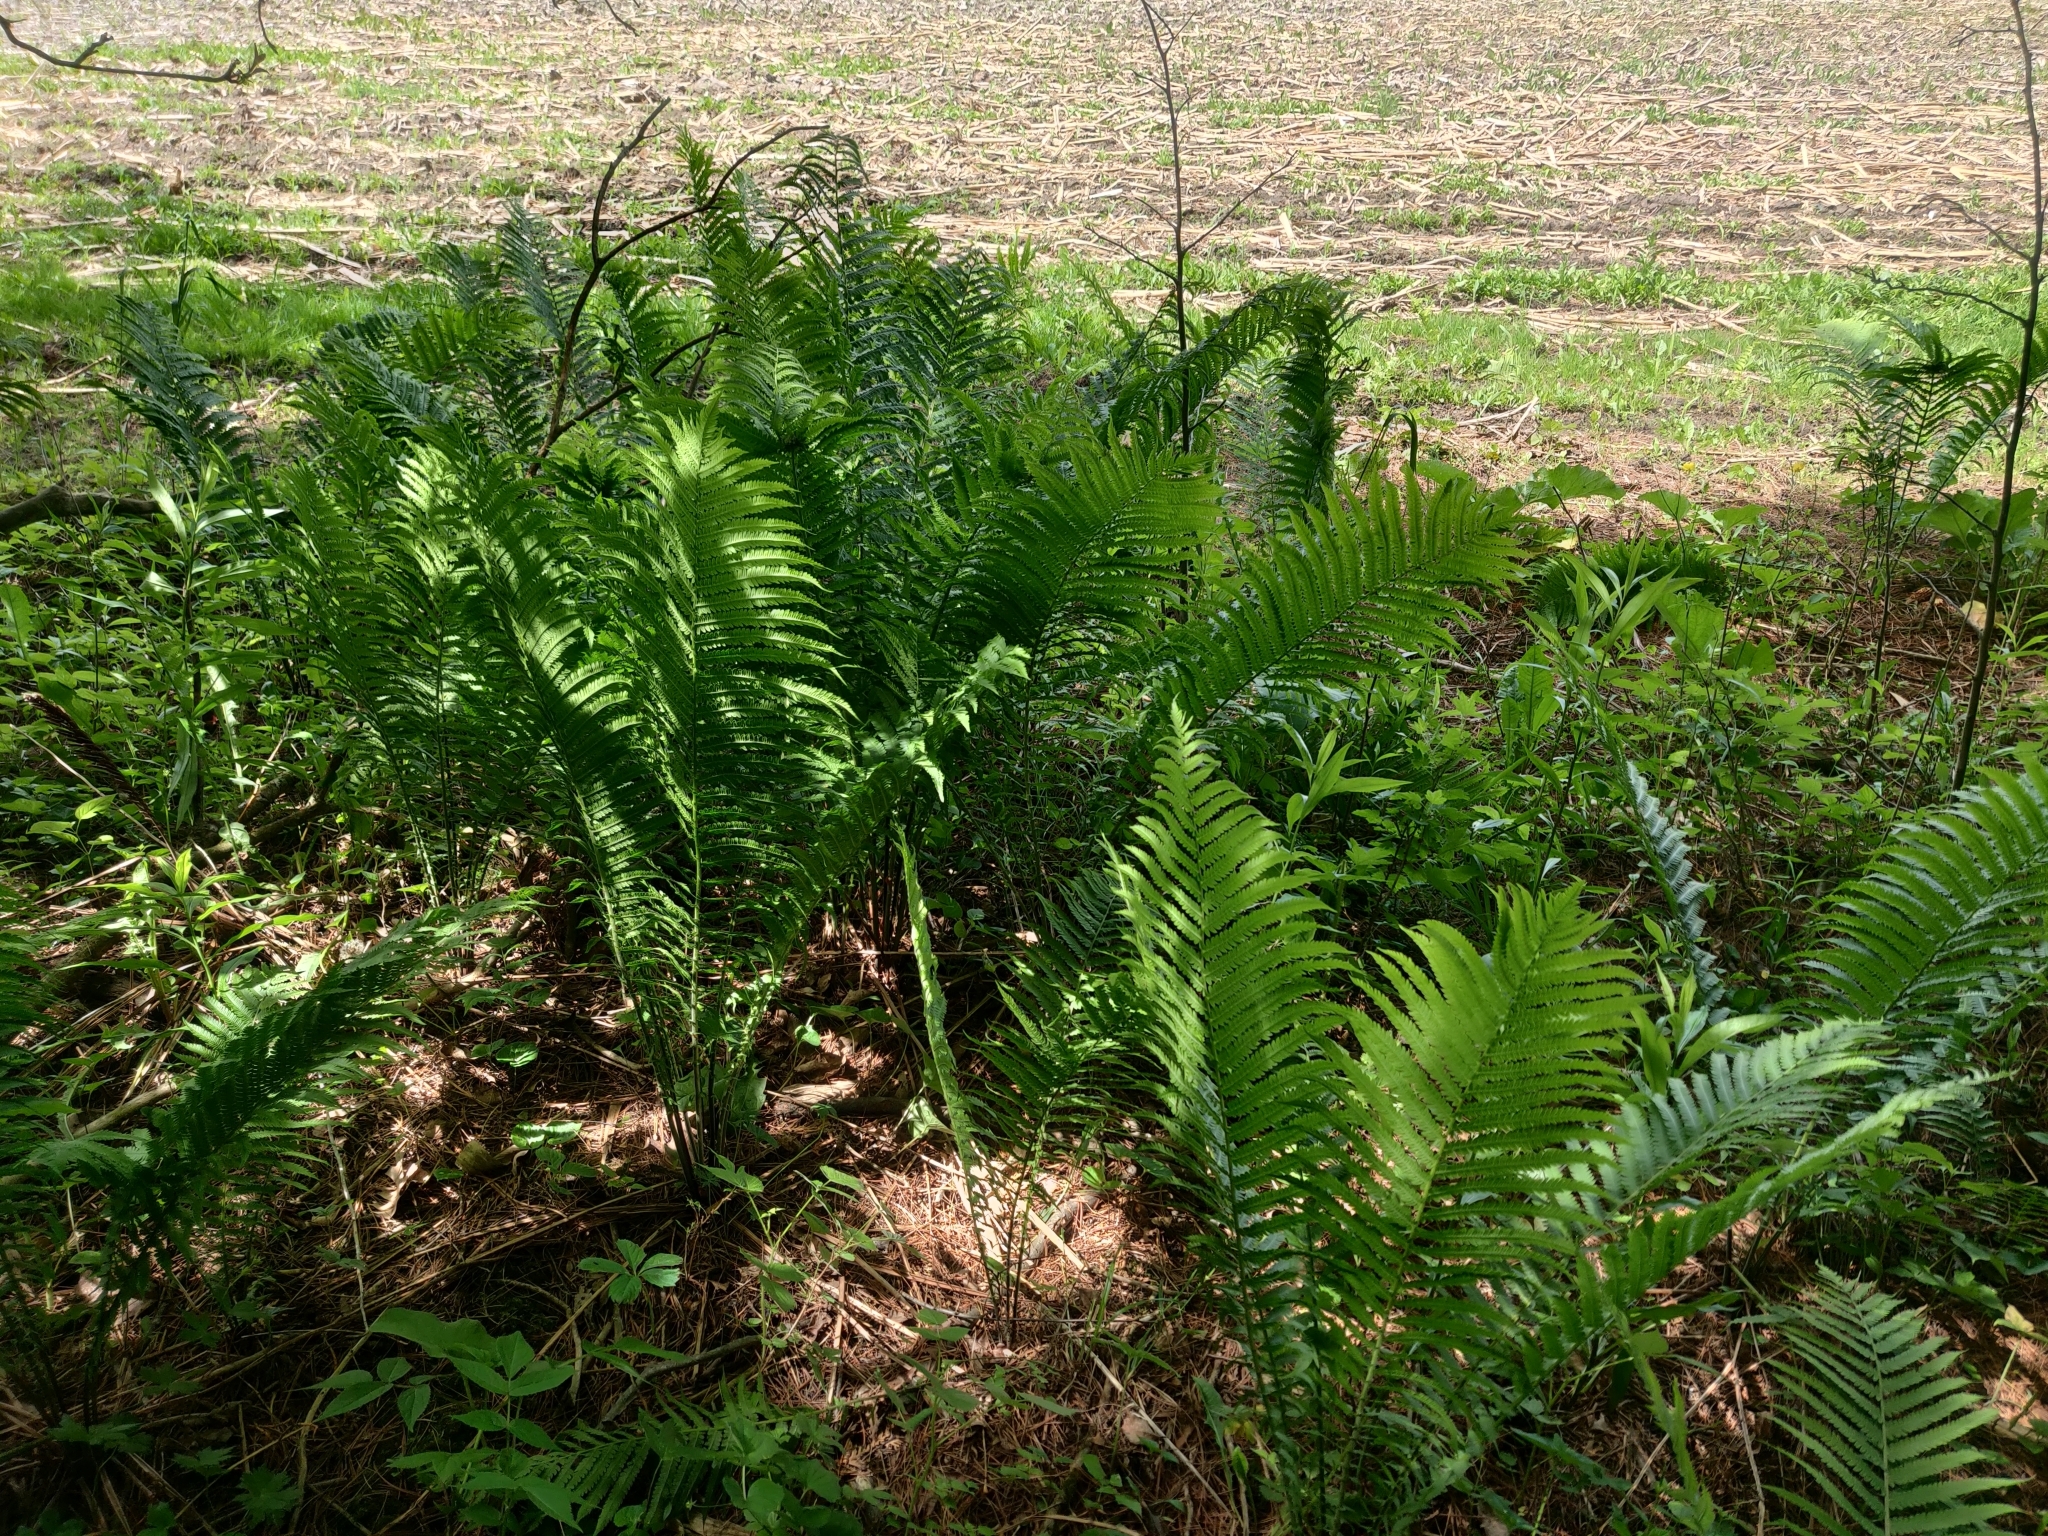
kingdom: Plantae
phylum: Tracheophyta
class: Polypodiopsida
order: Polypodiales
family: Onocleaceae
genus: Matteuccia
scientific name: Matteuccia struthiopteris
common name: Ostrich fern
